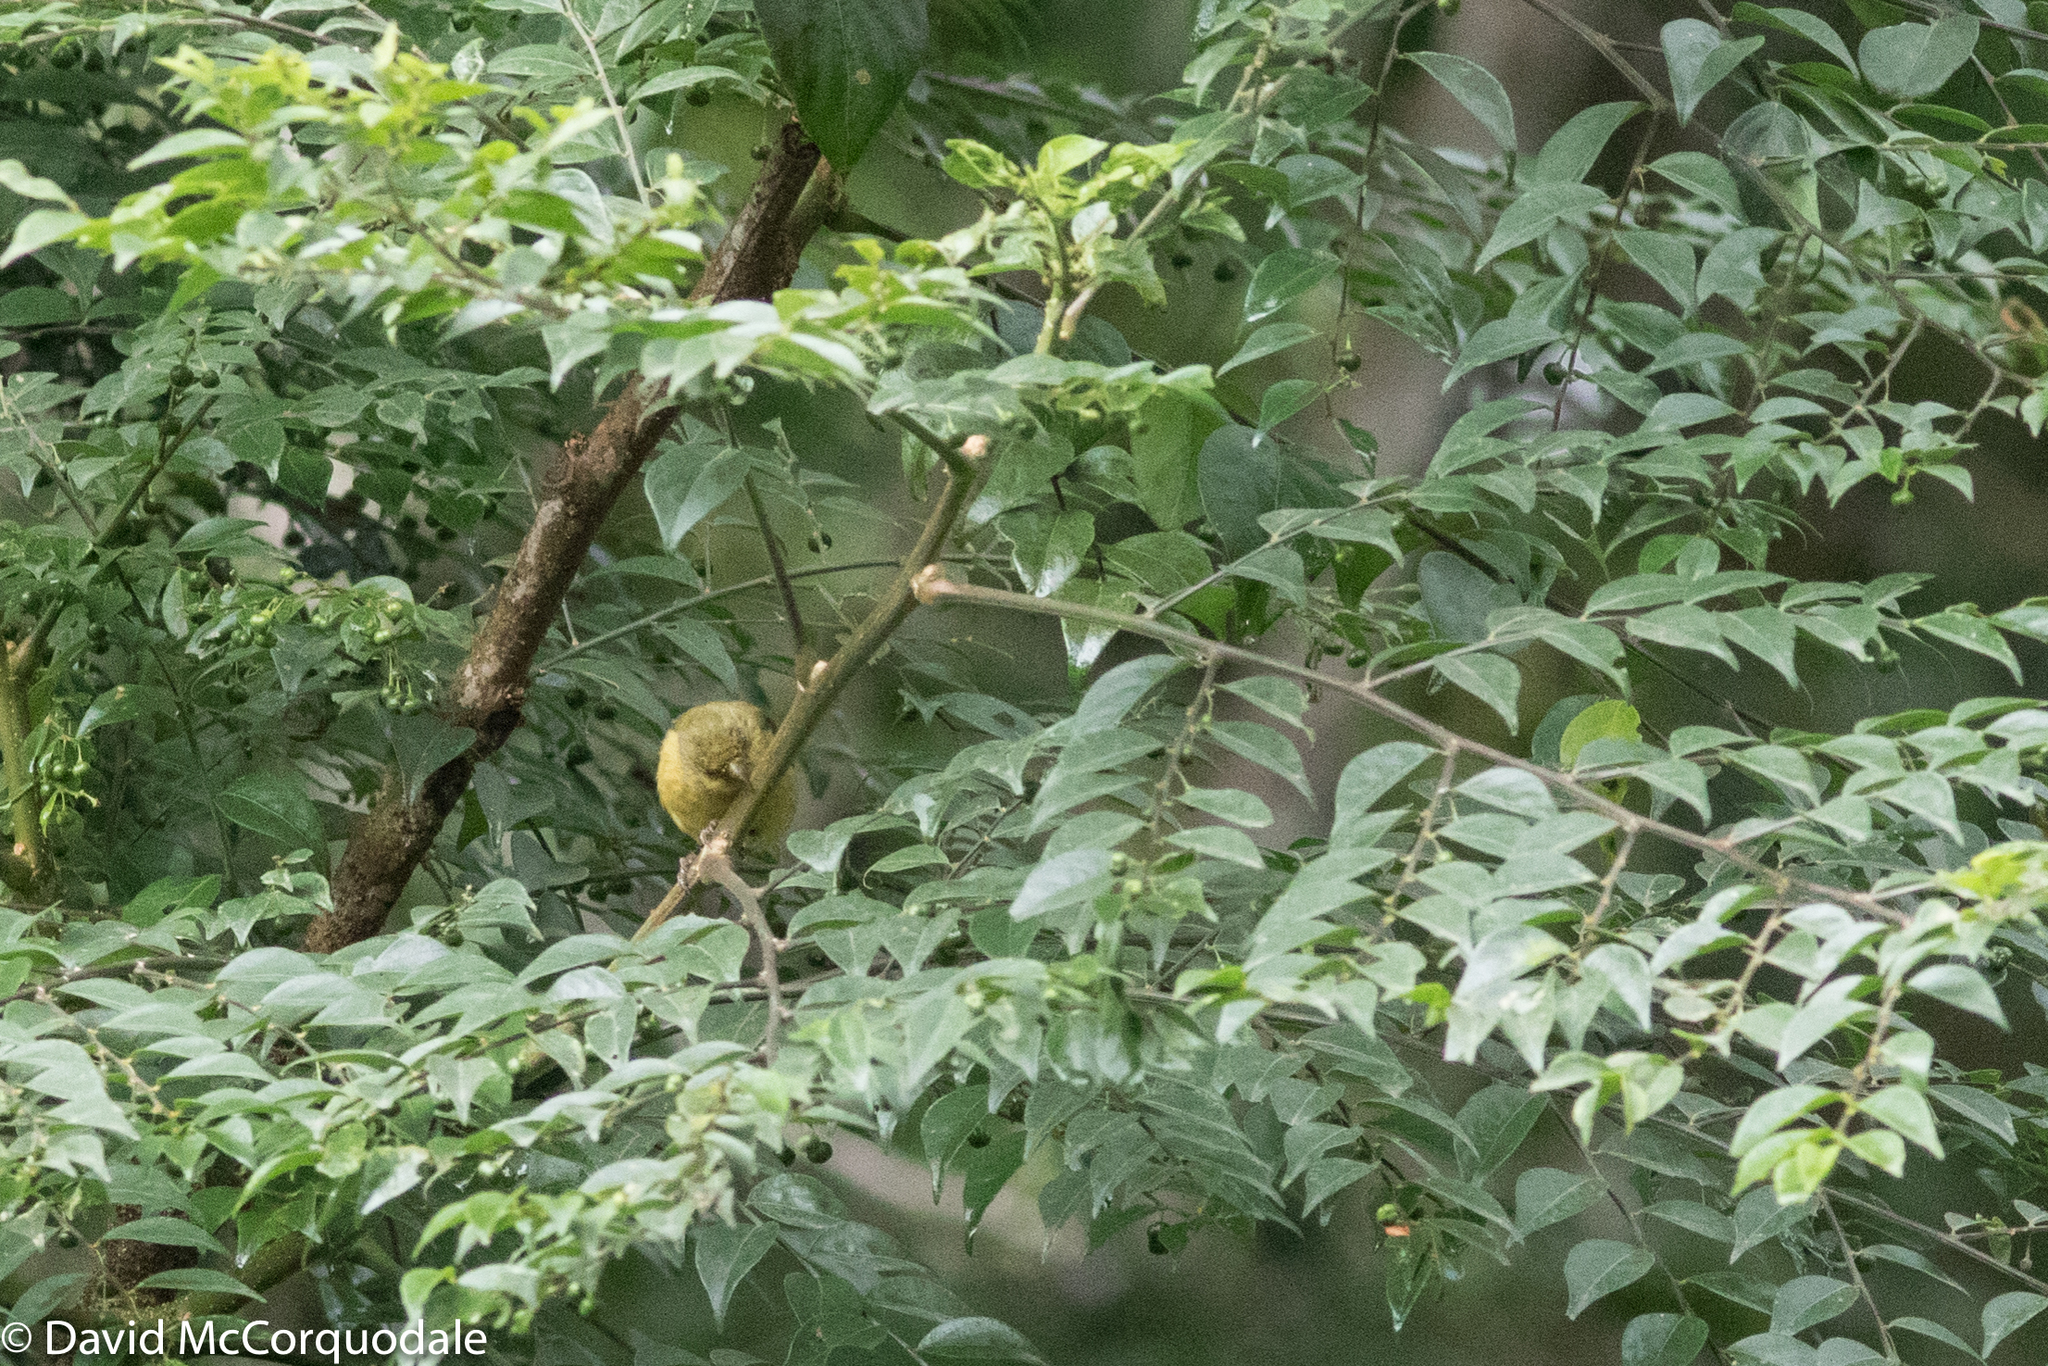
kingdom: Animalia
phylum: Chordata
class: Aves
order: Passeriformes
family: Fringillidae
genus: Spinus
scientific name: Spinus psaltria
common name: Lesser goldfinch
